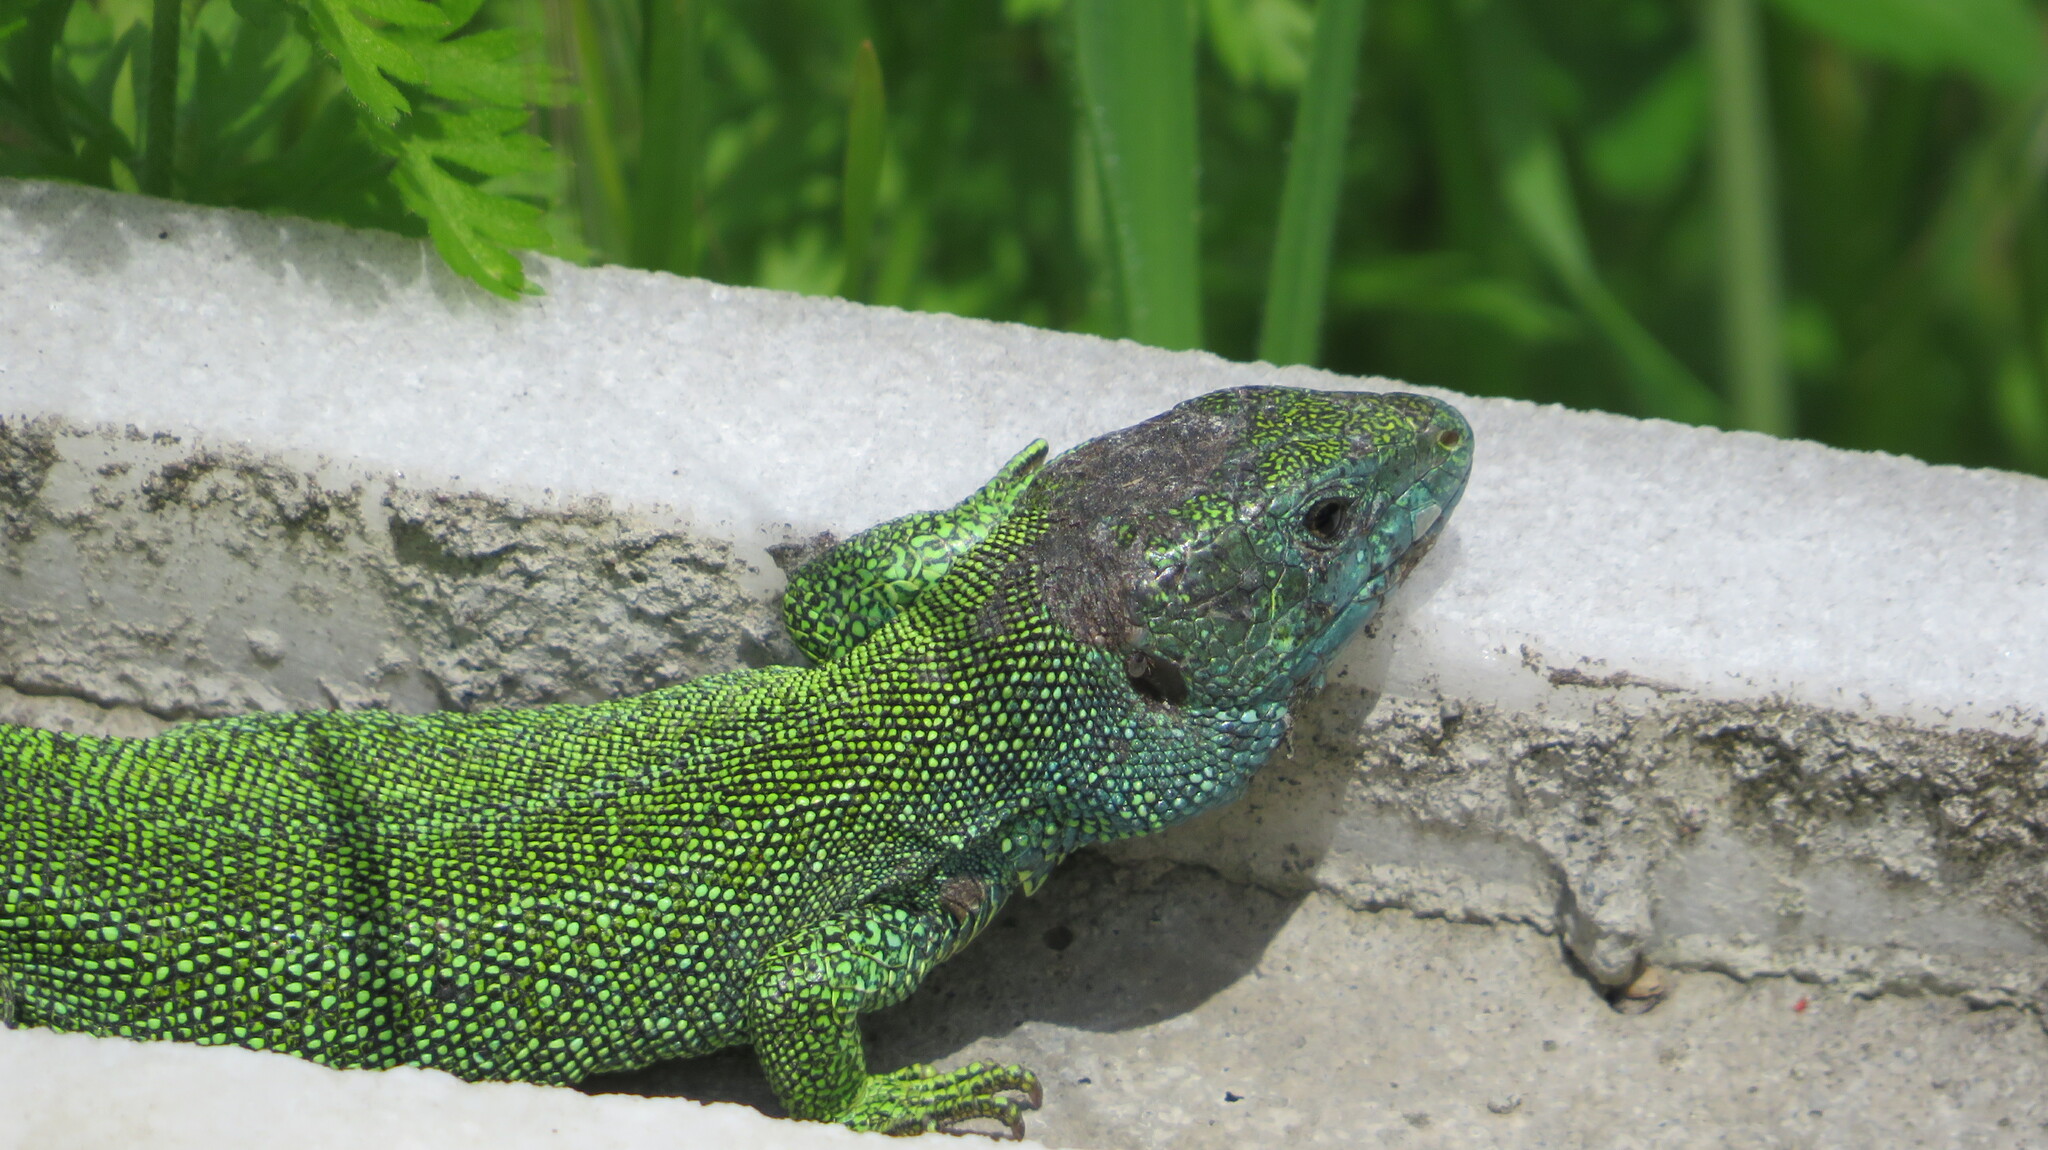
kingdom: Animalia
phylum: Chordata
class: Squamata
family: Lacertidae
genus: Lacerta
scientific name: Lacerta agilis
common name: Sand lizard
